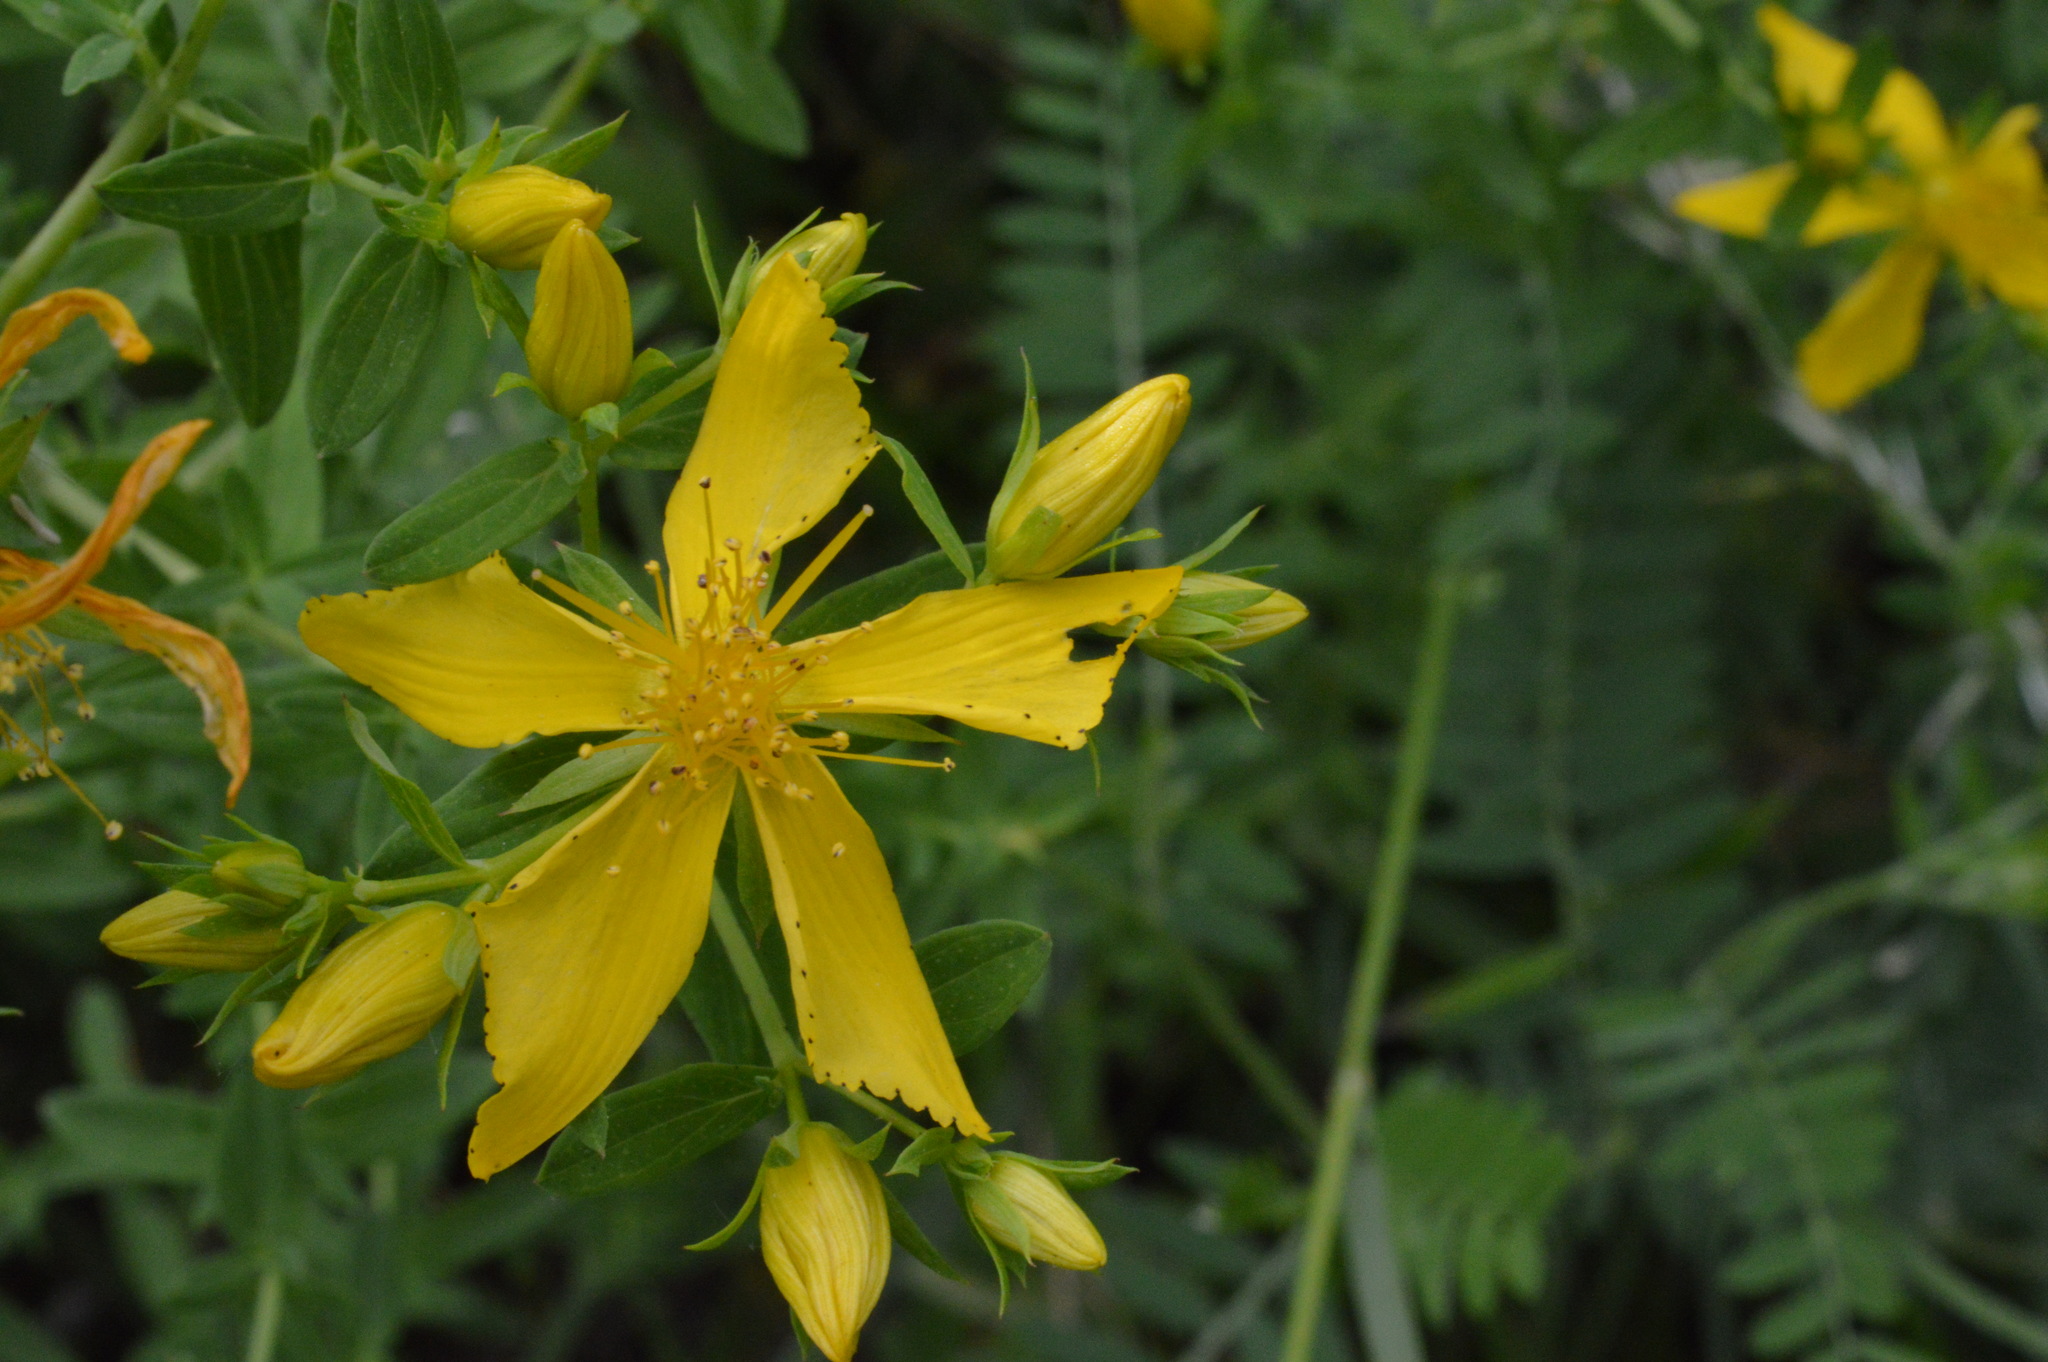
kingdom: Plantae
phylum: Tracheophyta
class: Magnoliopsida
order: Malpighiales
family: Hypericaceae
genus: Hypericum
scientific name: Hypericum perforatum
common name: Common st. johnswort
